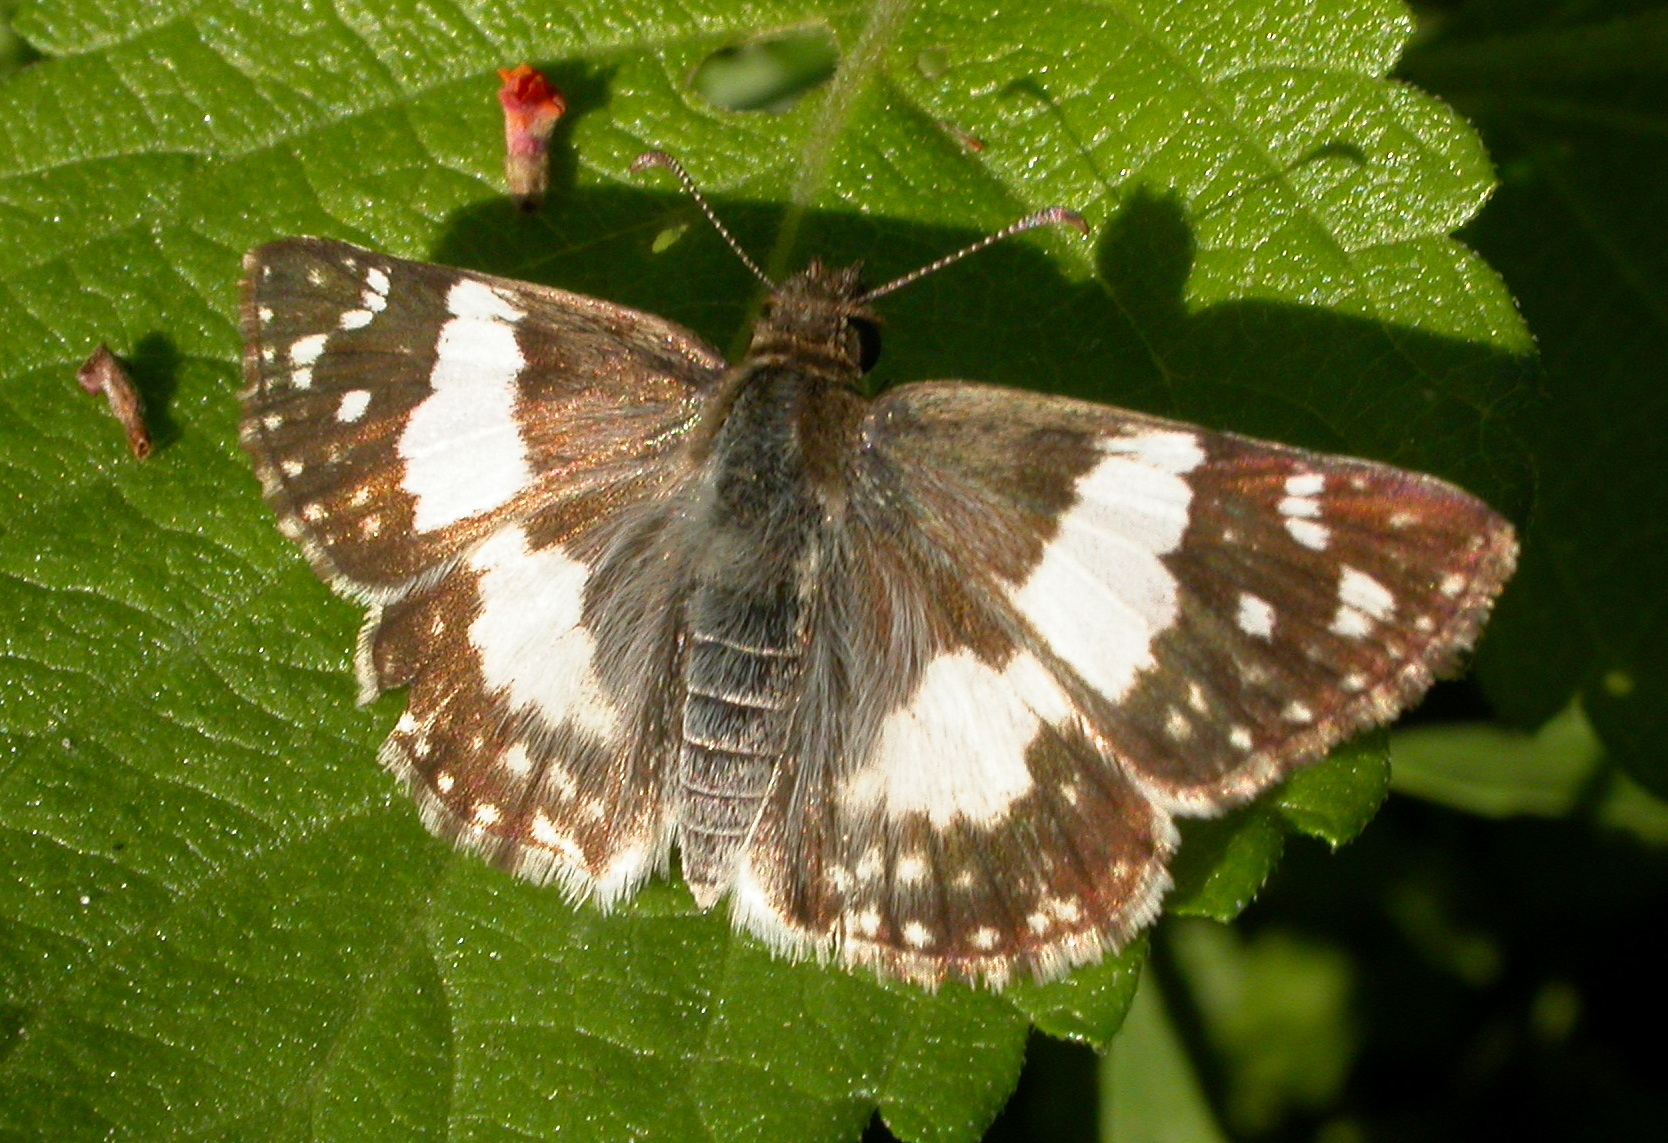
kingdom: Animalia
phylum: Arthropoda
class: Insecta
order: Lepidoptera
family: Hesperiidae
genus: Heliopyrgus
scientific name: Heliopyrgus domicella
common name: Erichson's white skipper
